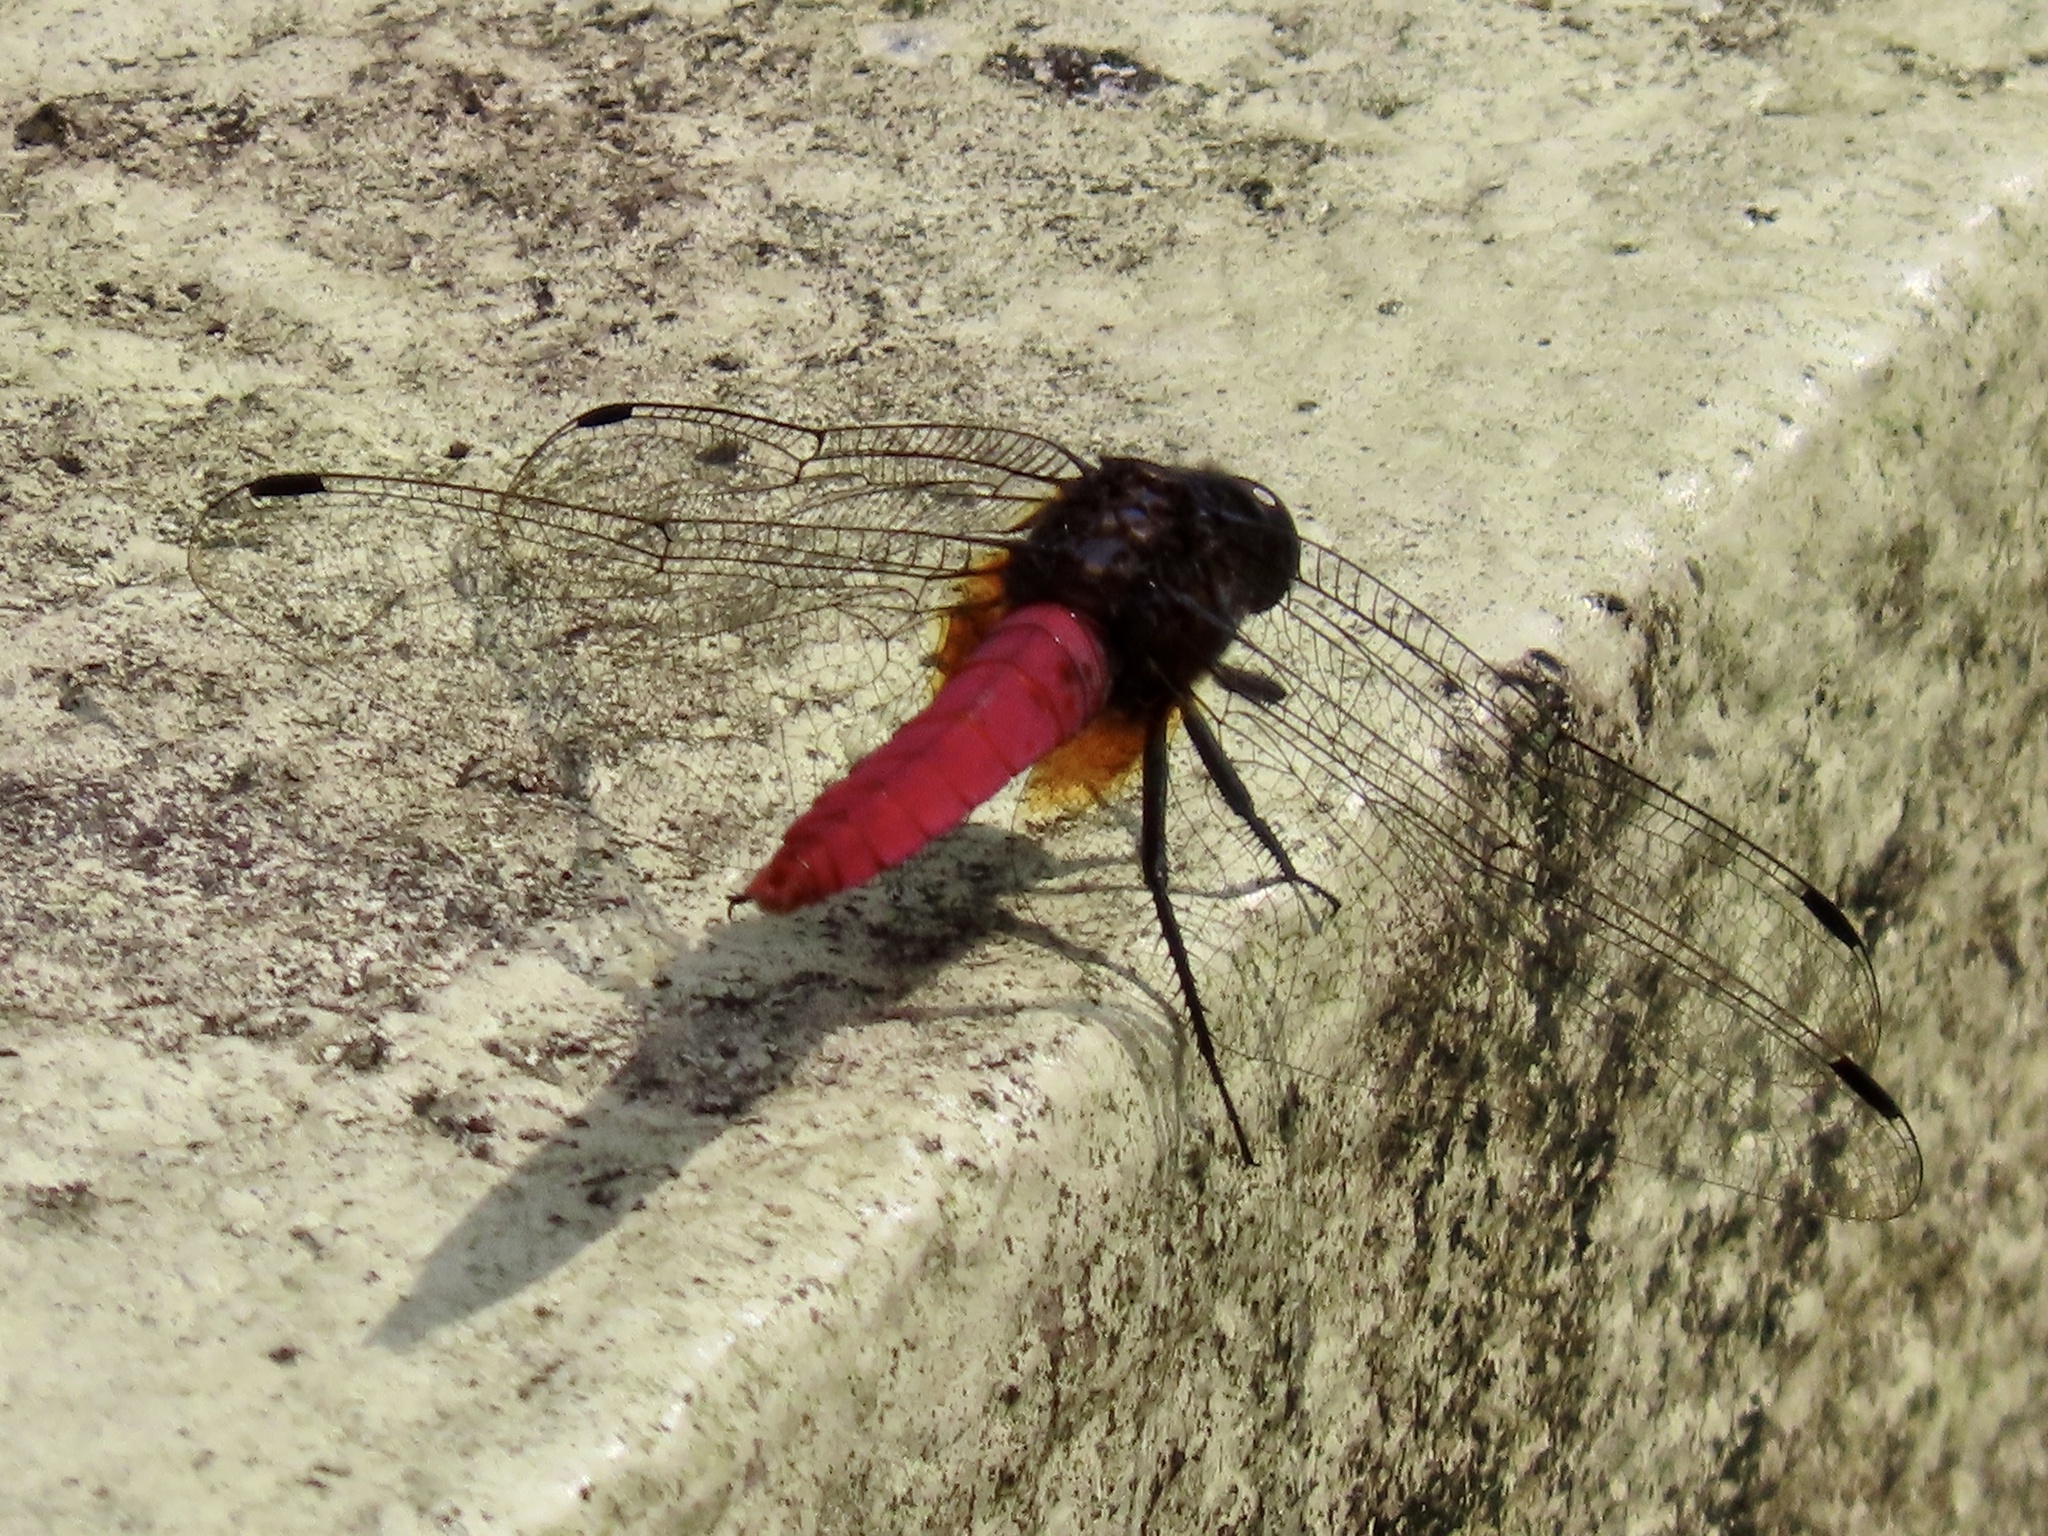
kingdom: Animalia
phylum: Arthropoda
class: Insecta
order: Odonata
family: Libellulidae
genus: Orthetrum
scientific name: Orthetrum pruinosum
